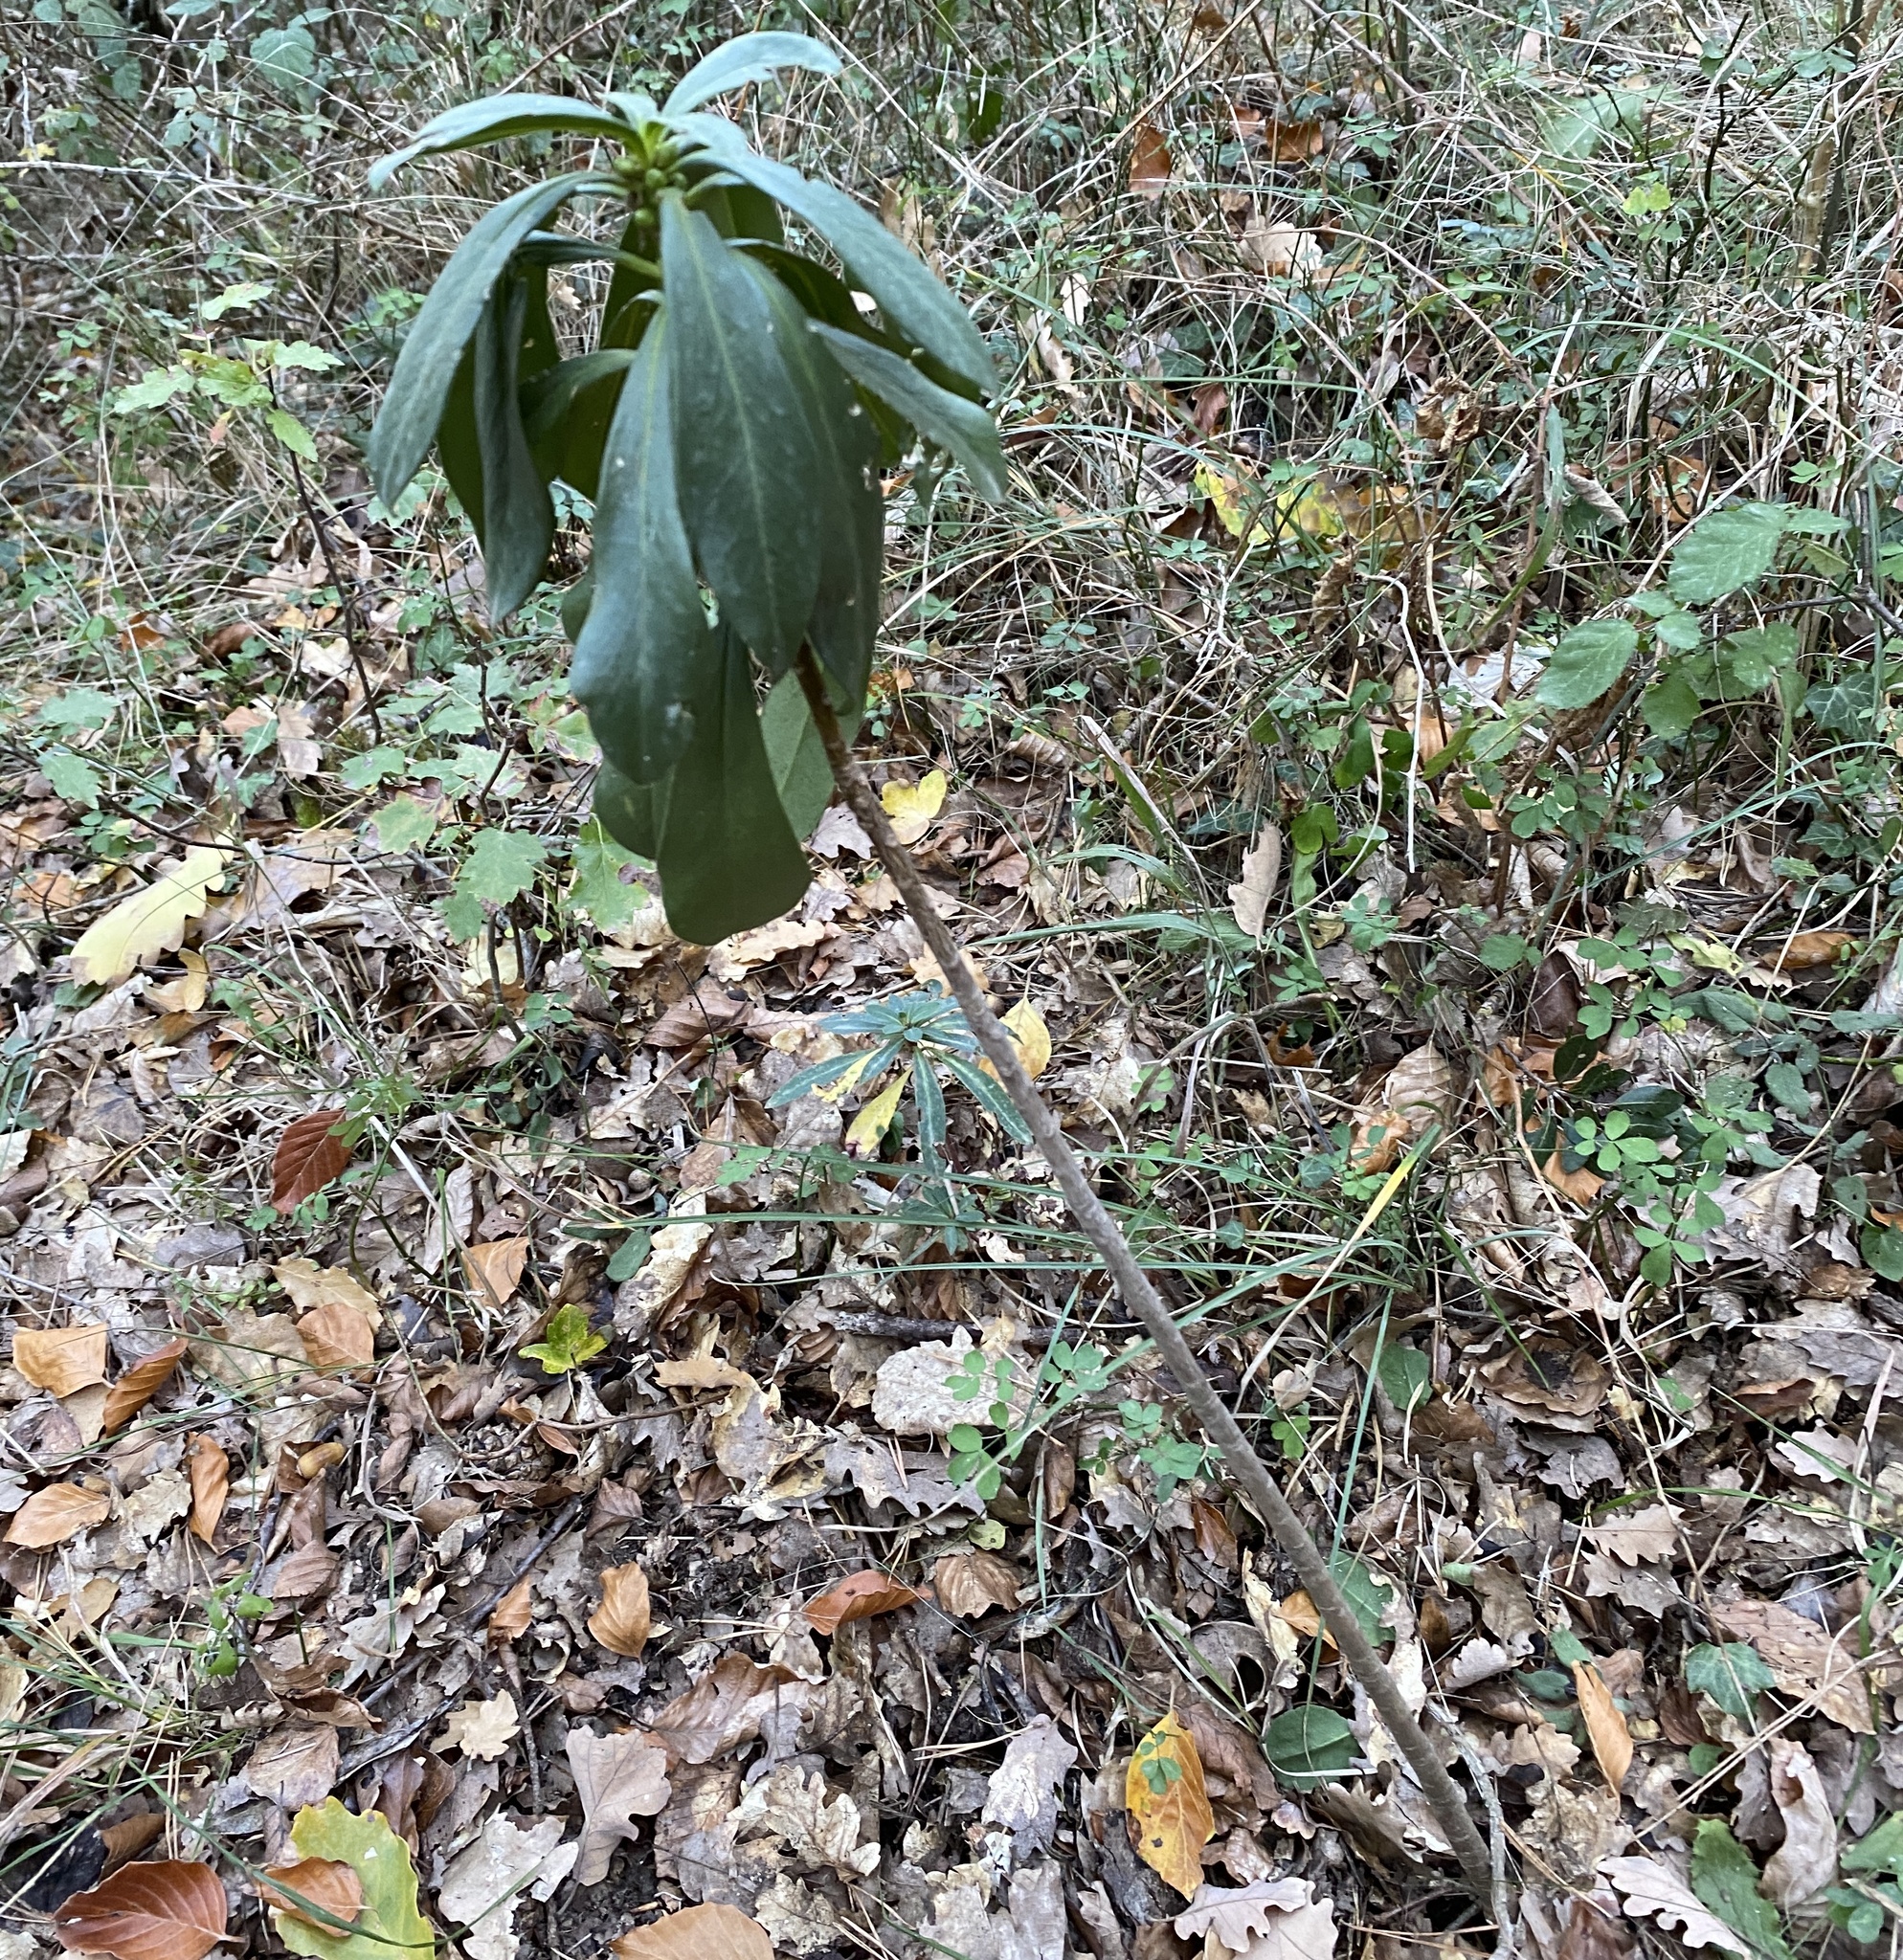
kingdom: Plantae
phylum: Tracheophyta
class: Magnoliopsida
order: Malvales
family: Thymelaeaceae
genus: Daphne
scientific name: Daphne laureola
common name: Spurge-laurel
